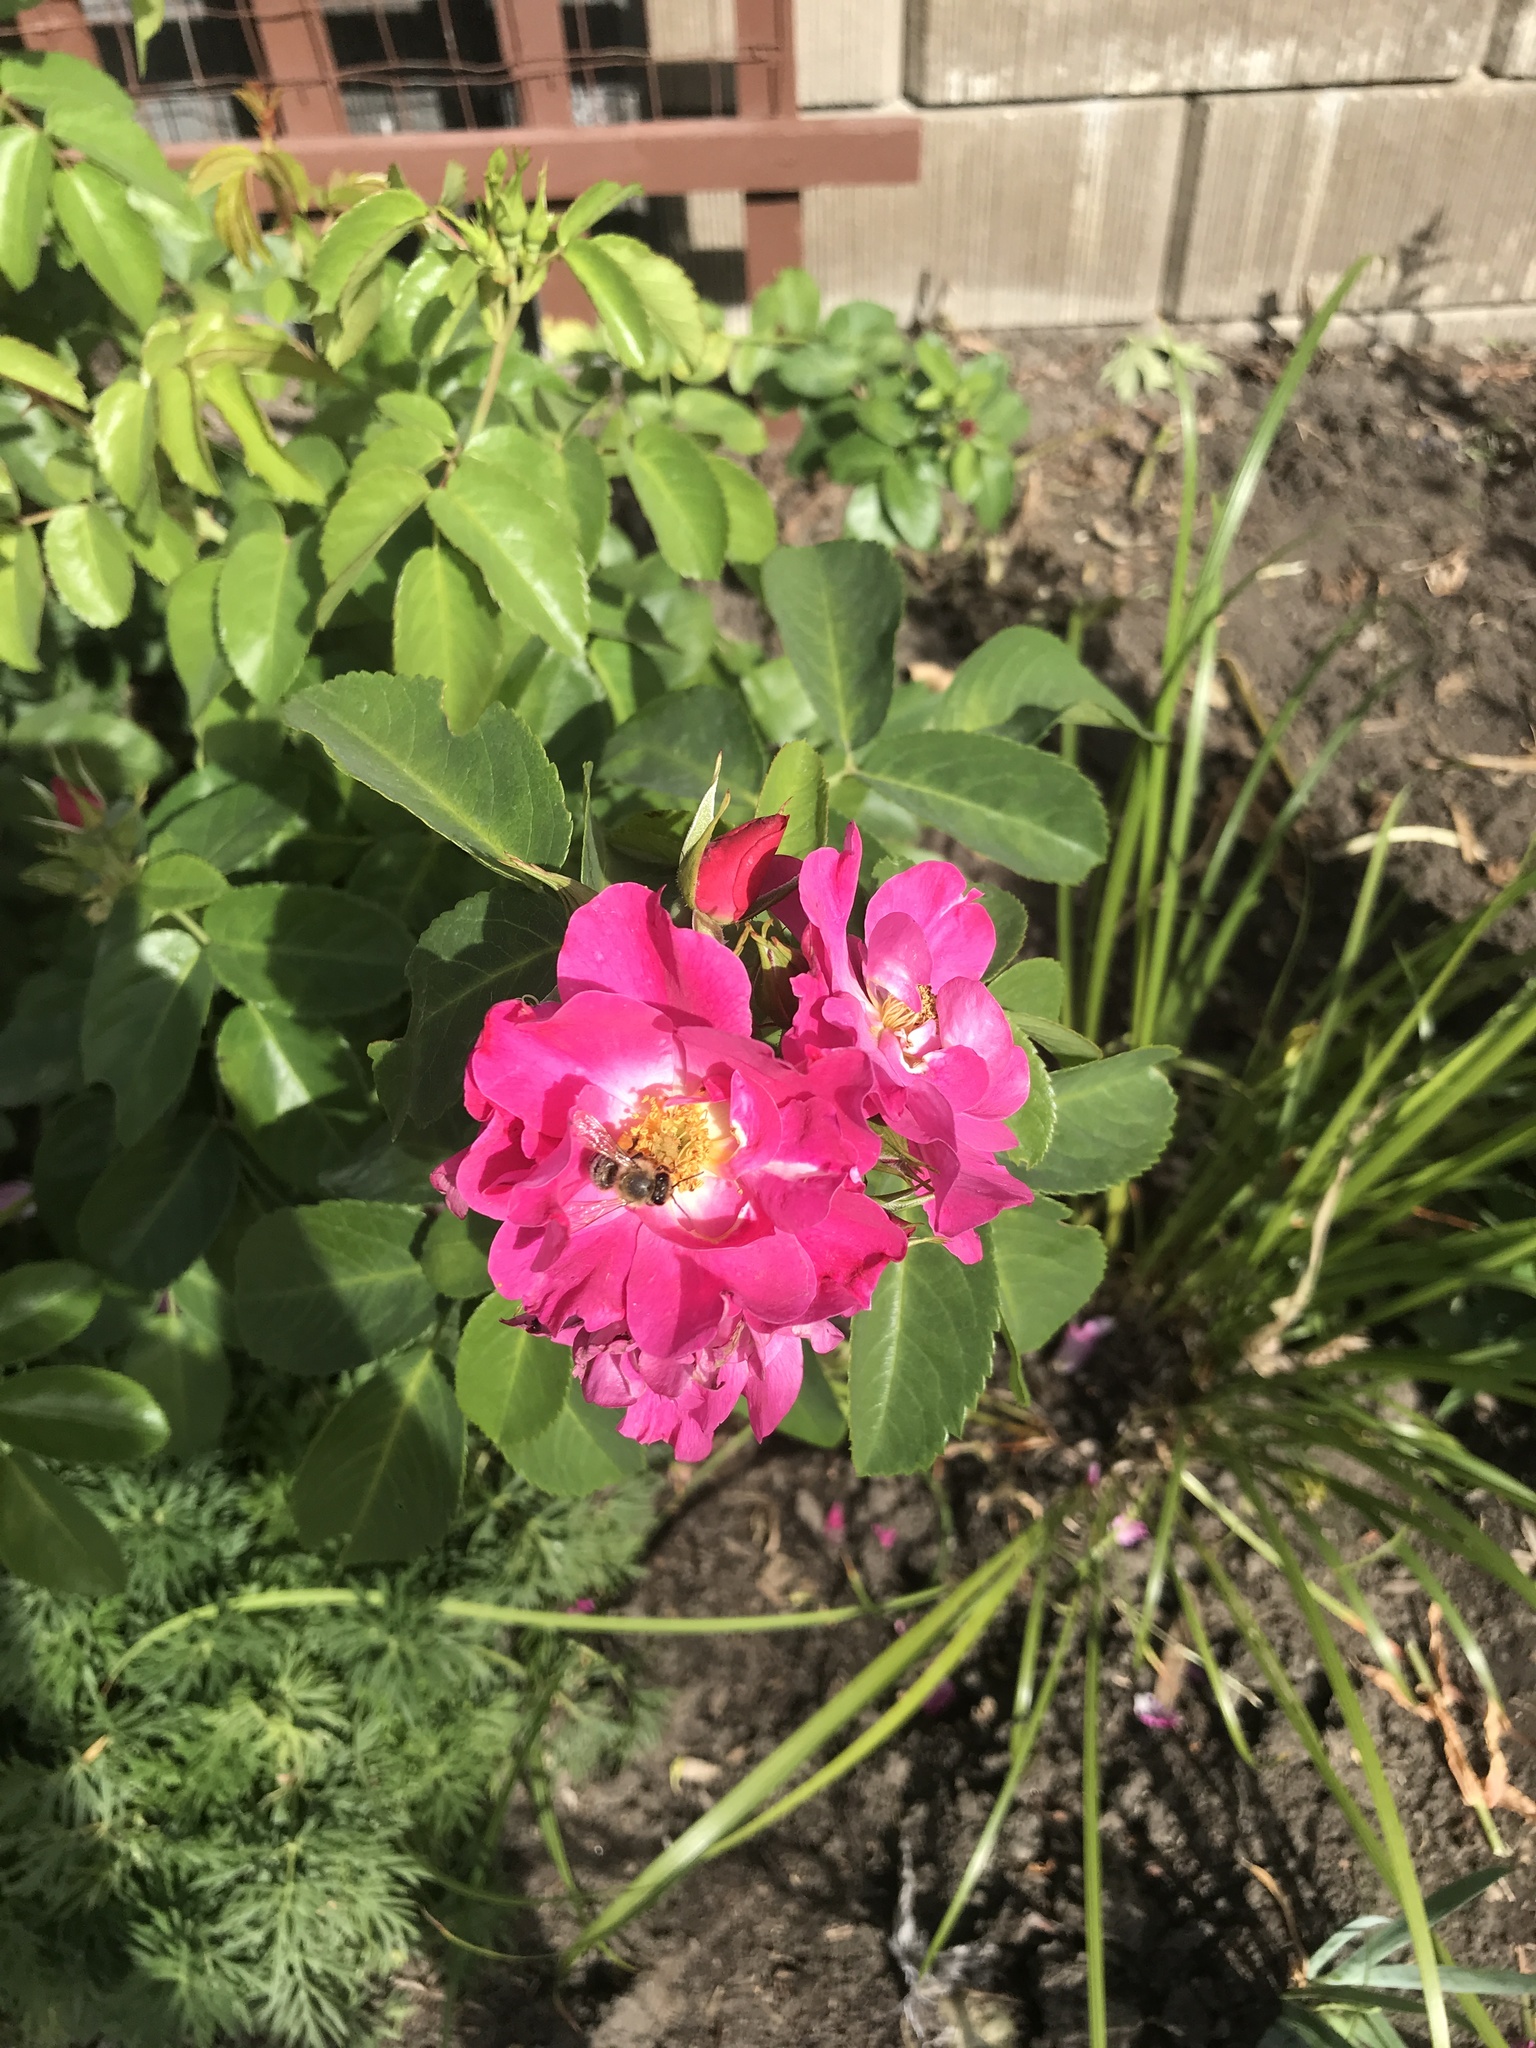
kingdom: Animalia
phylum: Arthropoda
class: Insecta
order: Hymenoptera
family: Apidae
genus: Apis
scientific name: Apis mellifera
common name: Honey bee
